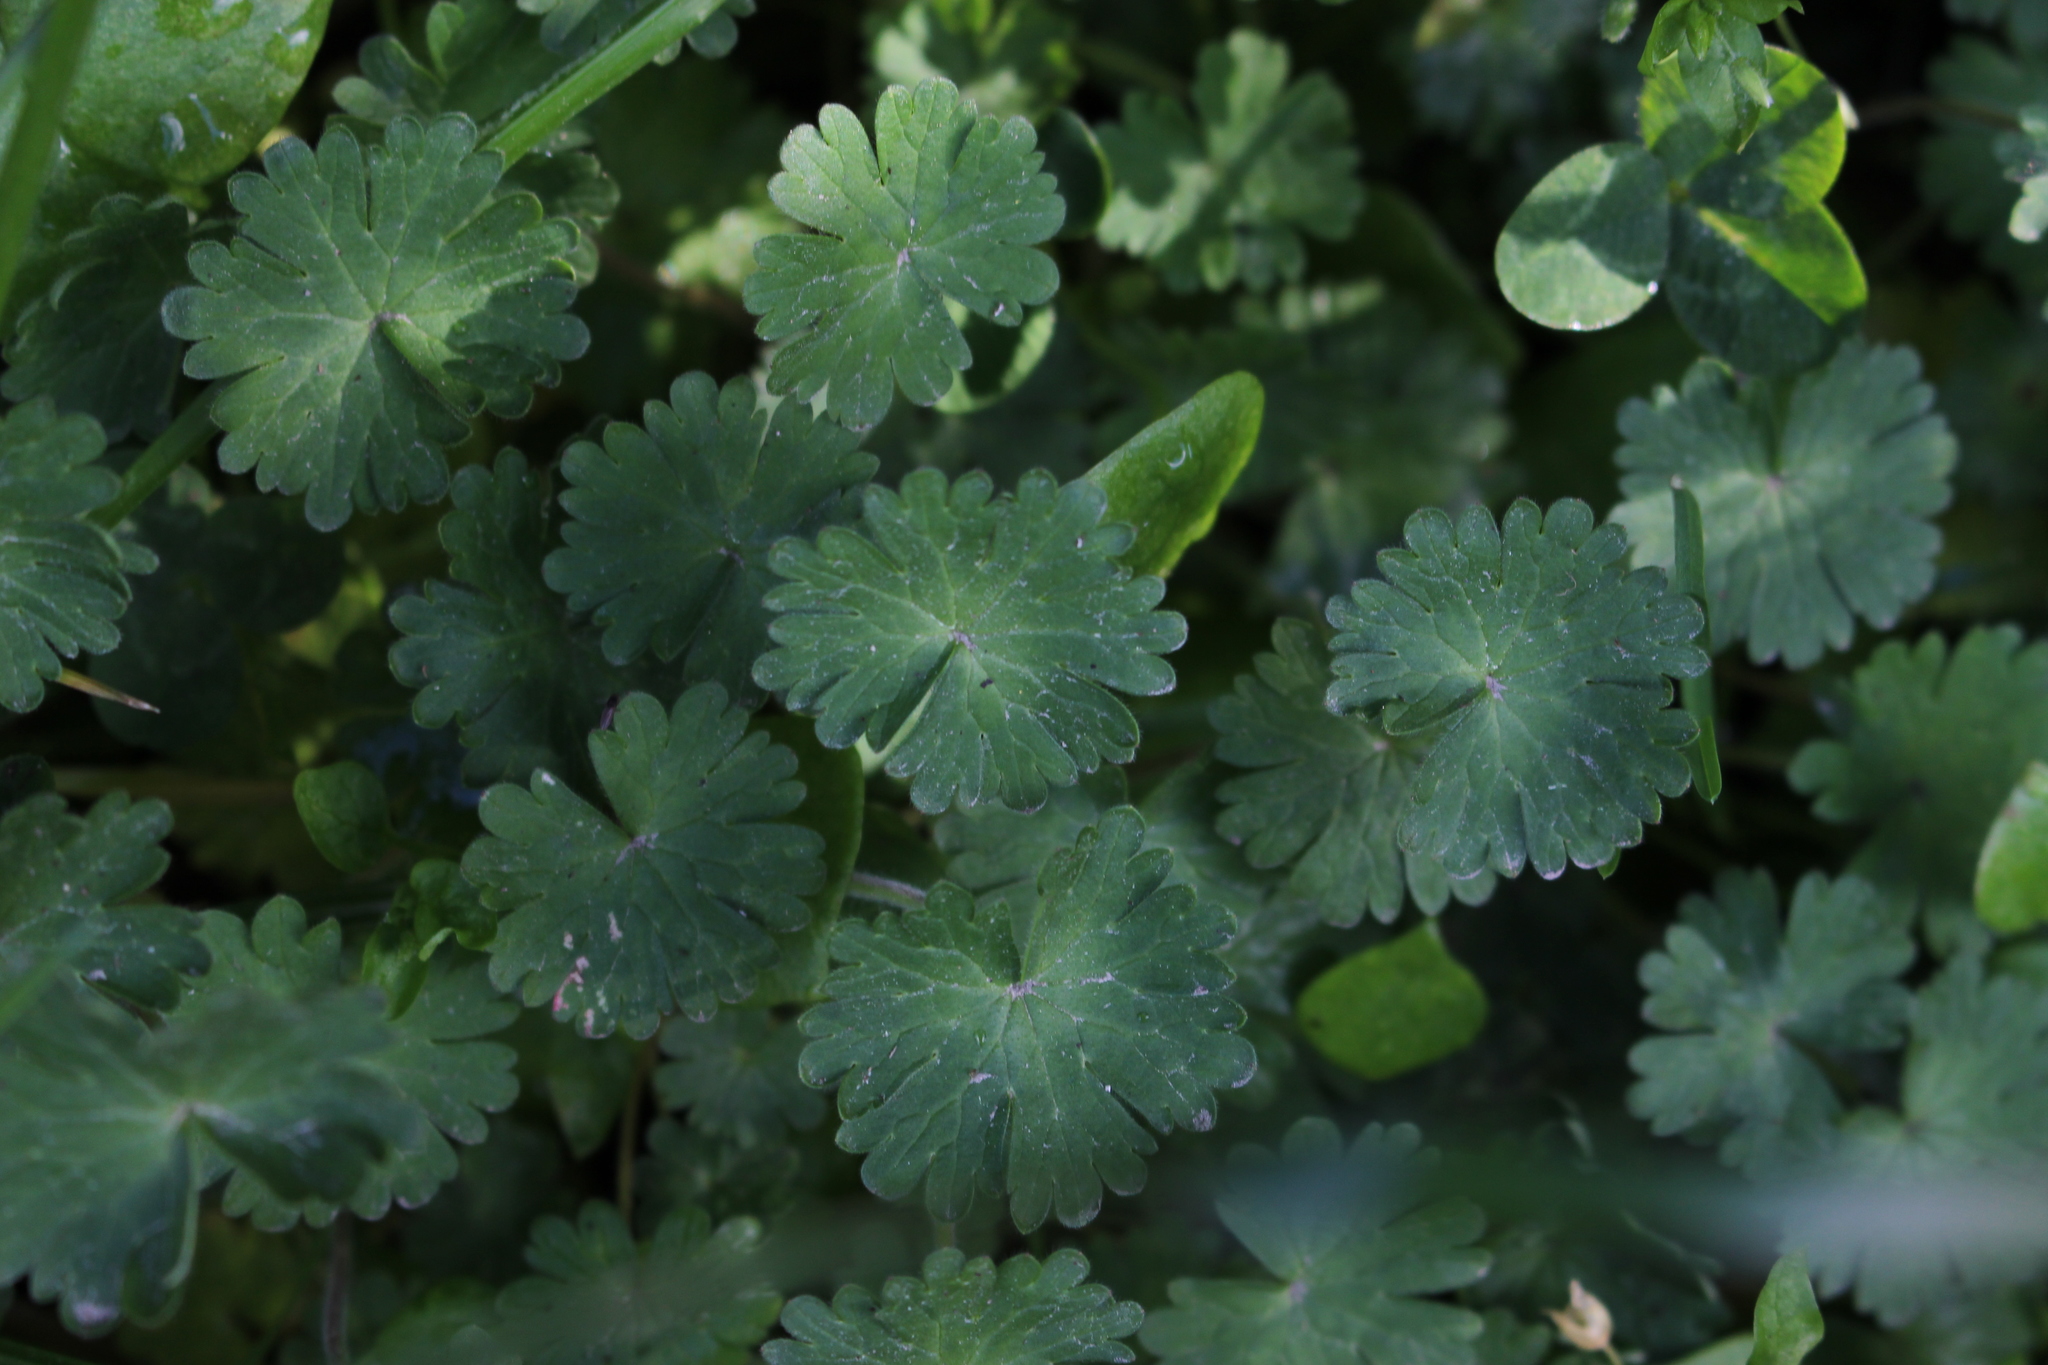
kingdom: Plantae
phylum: Tracheophyta
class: Magnoliopsida
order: Geraniales
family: Geraniaceae
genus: Geranium
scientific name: Geranium molle
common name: Dove's-foot crane's-bill
